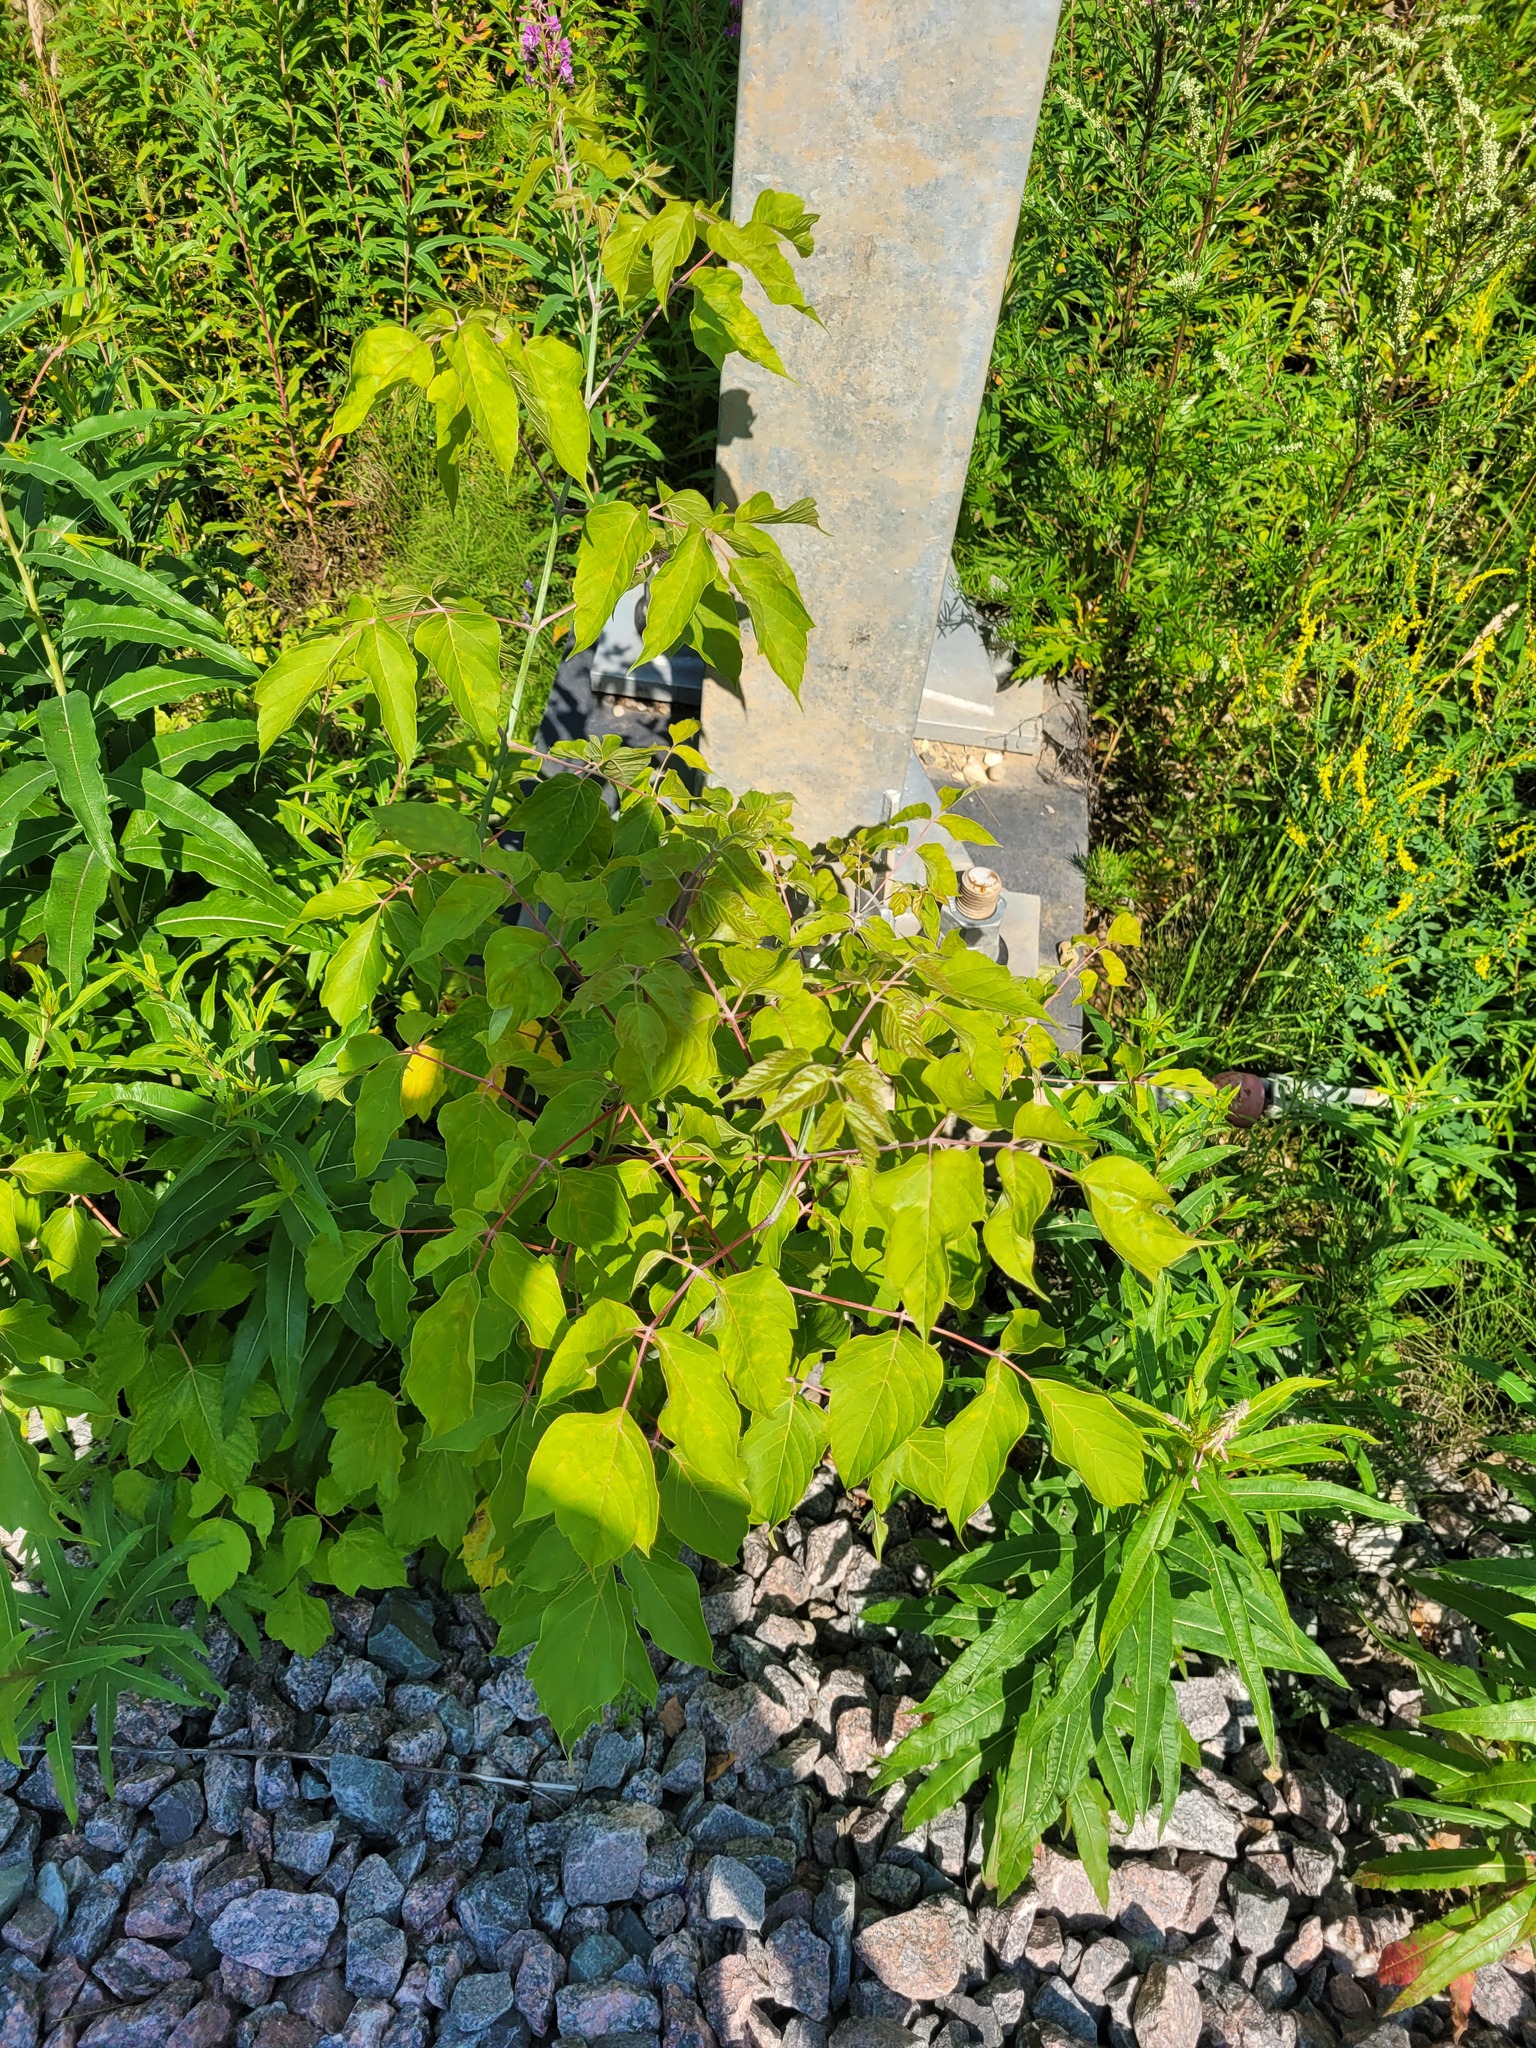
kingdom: Plantae
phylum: Tracheophyta
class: Magnoliopsida
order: Sapindales
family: Sapindaceae
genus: Acer
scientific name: Acer negundo
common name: Ashleaf maple
